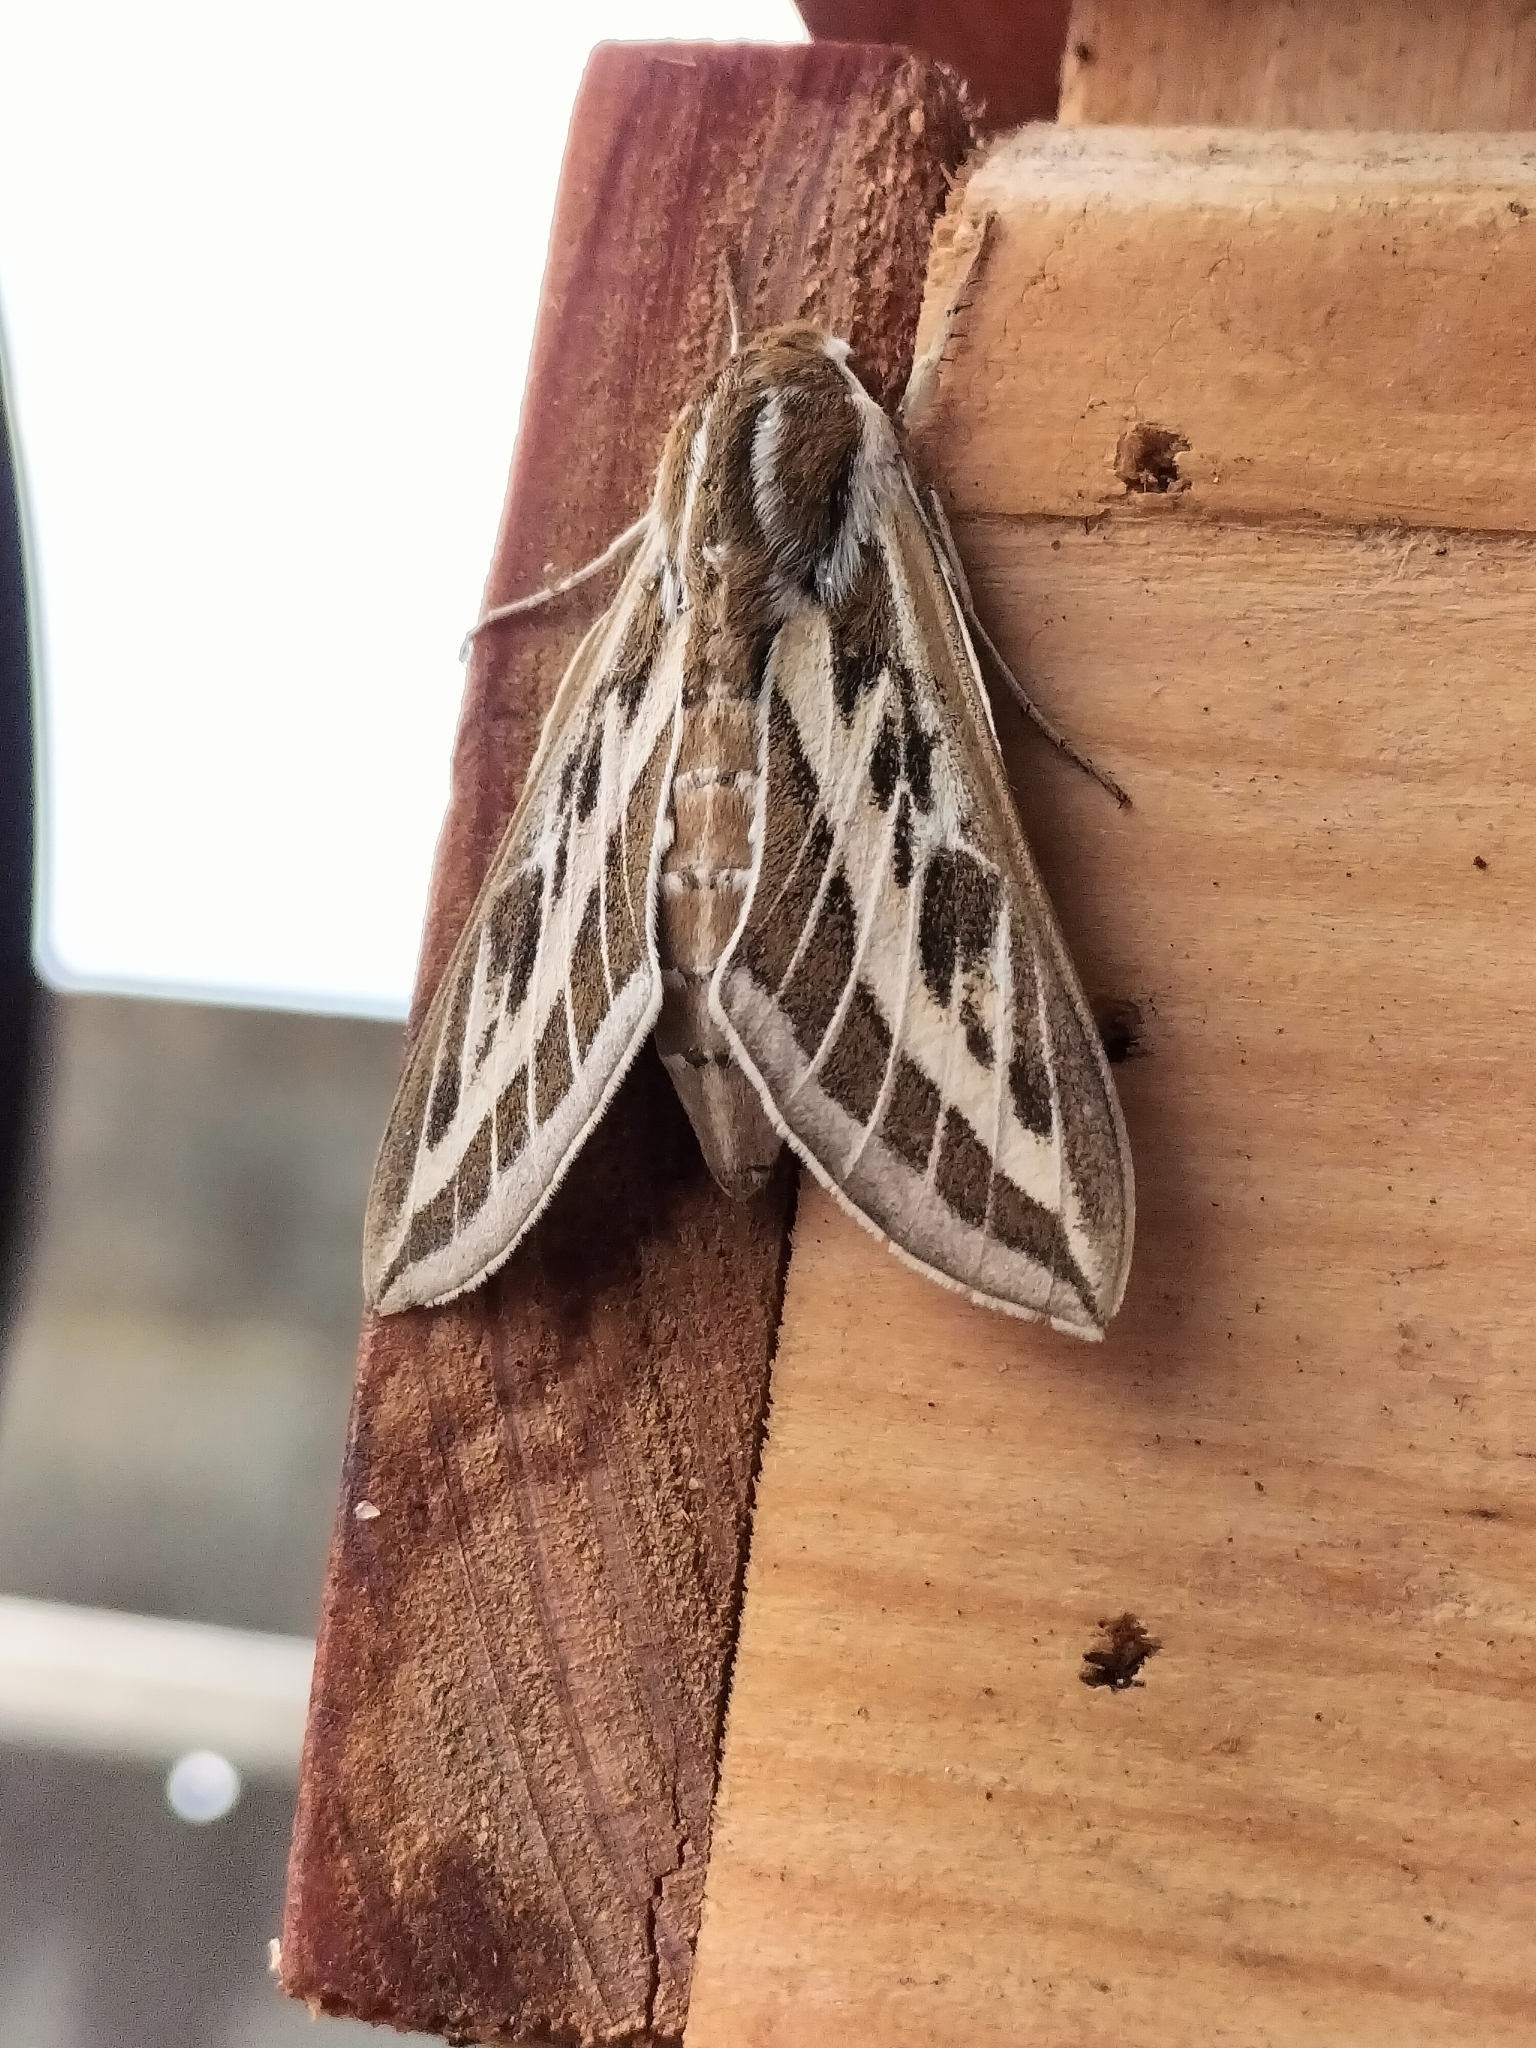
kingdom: Animalia
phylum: Arthropoda
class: Insecta
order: Lepidoptera
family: Sphingidae
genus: Hyles
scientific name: Hyles livornicoides
